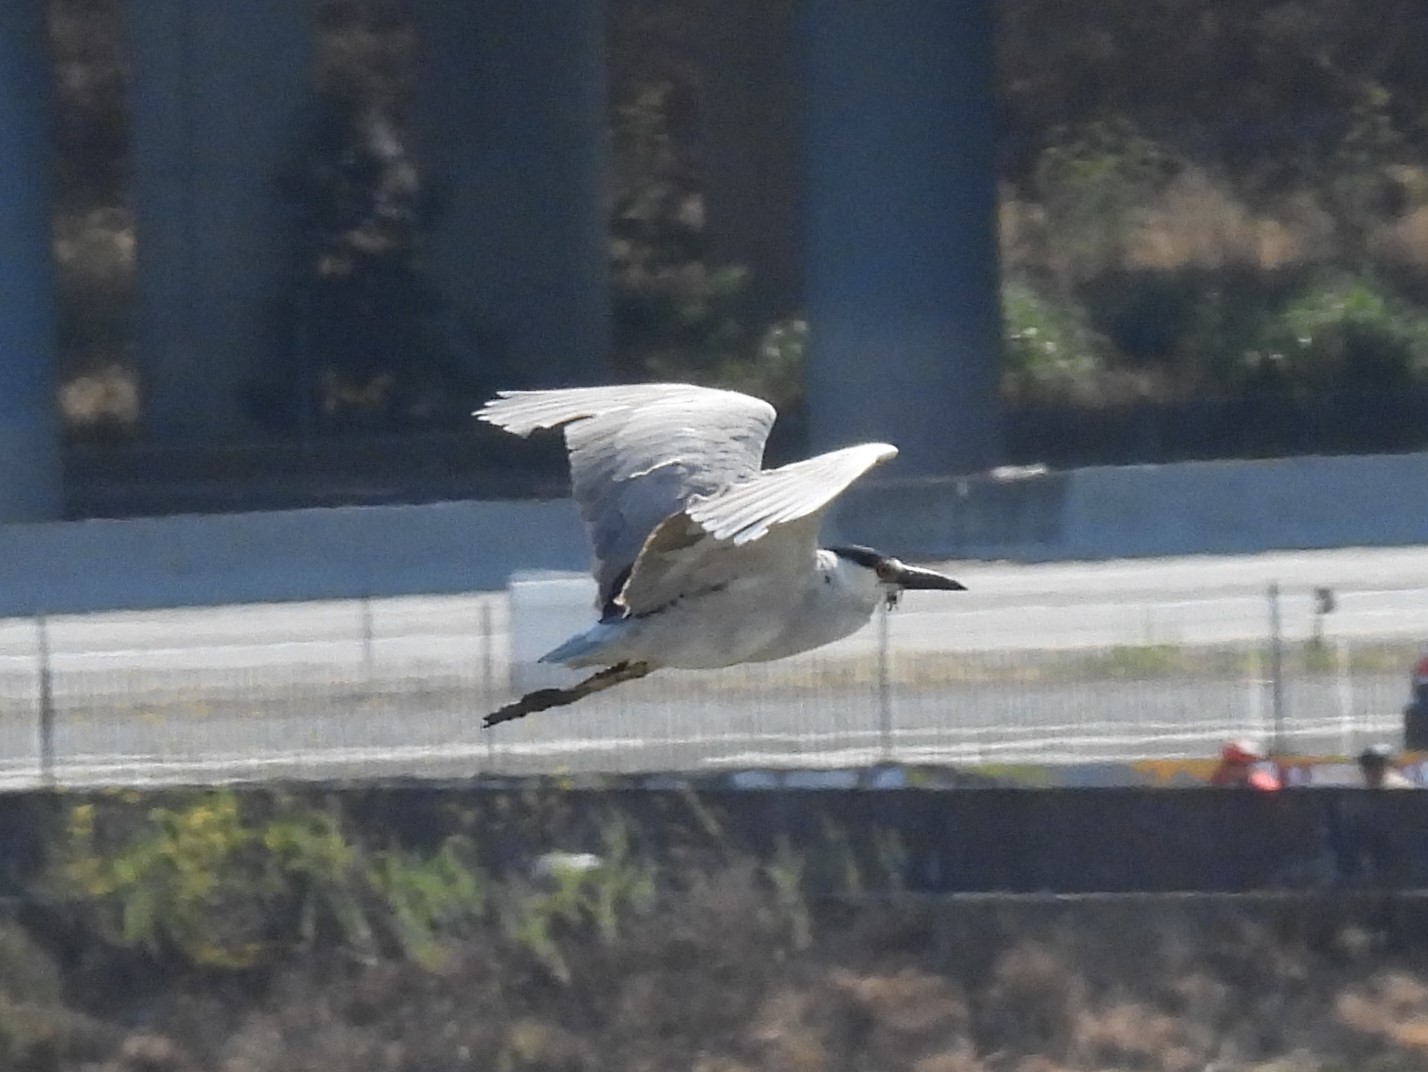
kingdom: Animalia
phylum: Chordata
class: Aves
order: Pelecaniformes
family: Ardeidae
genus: Nycticorax
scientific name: Nycticorax nycticorax
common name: Black-crowned night heron
